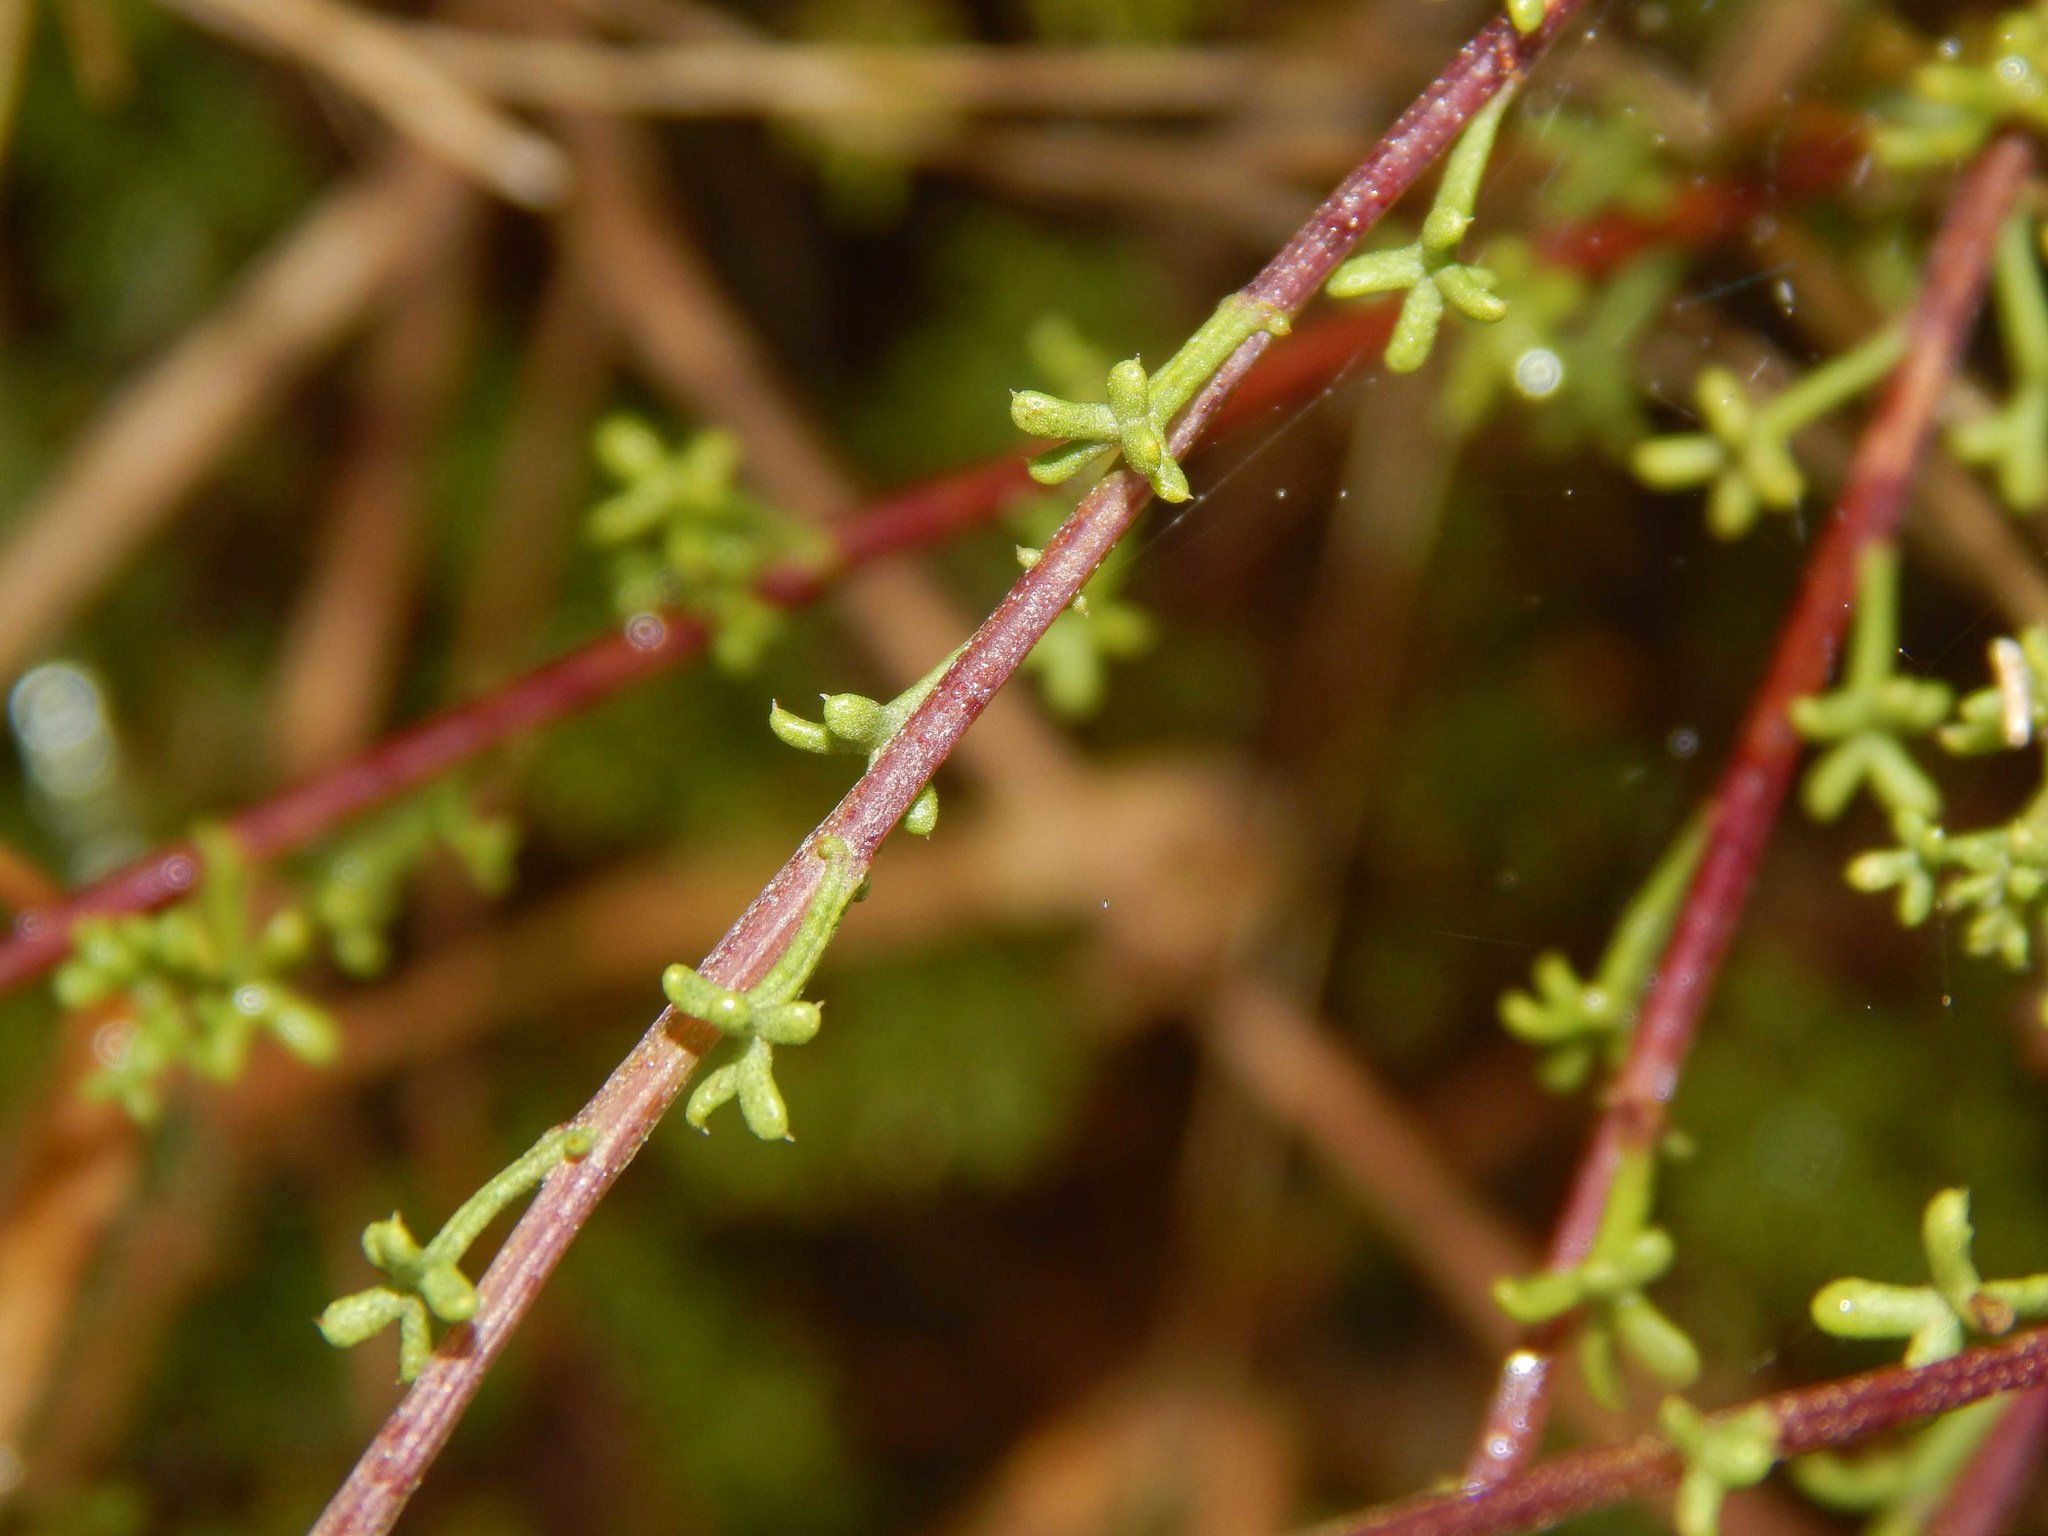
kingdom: Plantae
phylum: Tracheophyta
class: Magnoliopsida
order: Asterales
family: Asteraceae
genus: Cymbopappus
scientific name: Cymbopappus adenosolen
